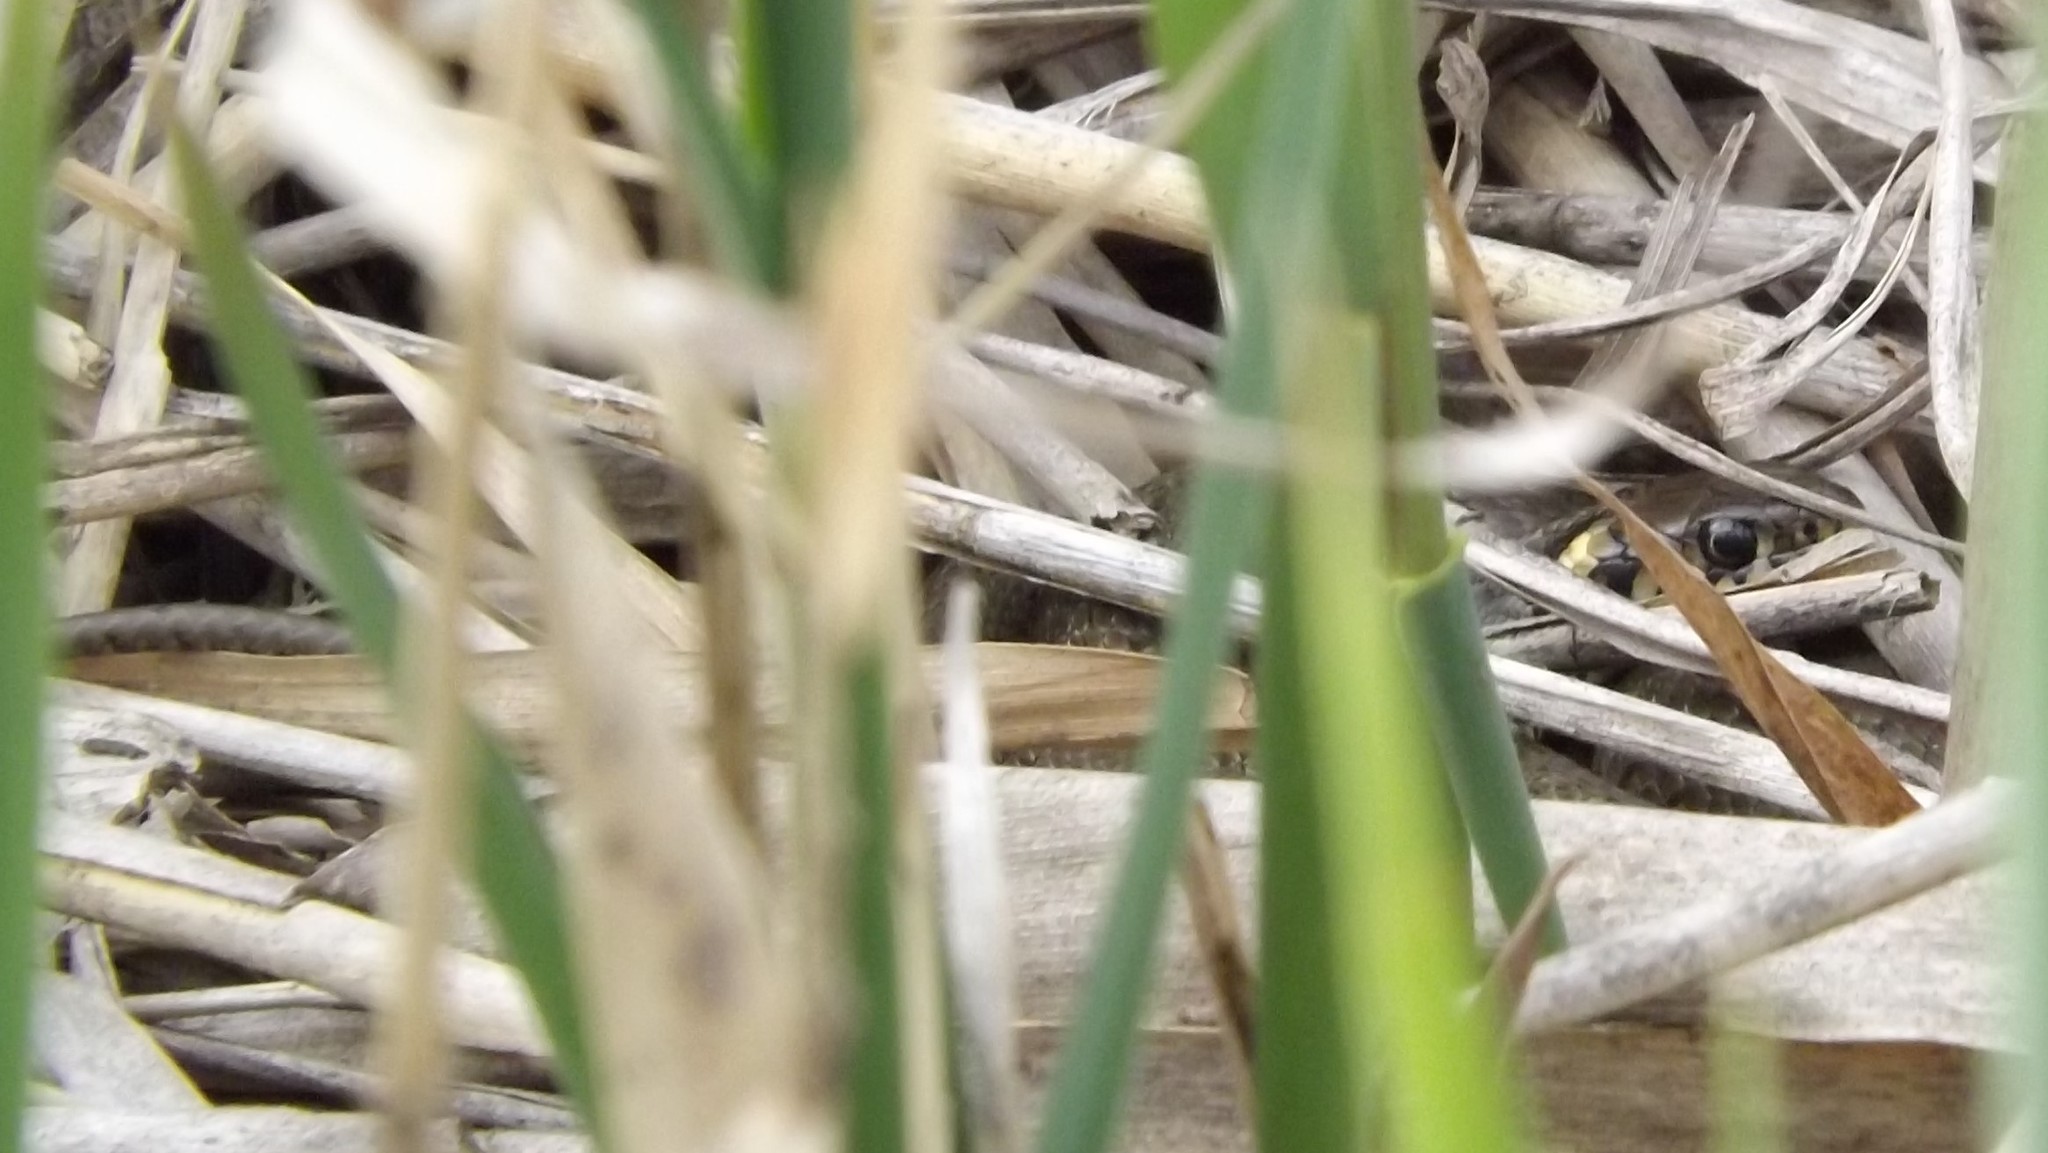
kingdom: Animalia
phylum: Chordata
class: Squamata
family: Colubridae
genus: Natrix
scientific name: Natrix natrix
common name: Grass snake
